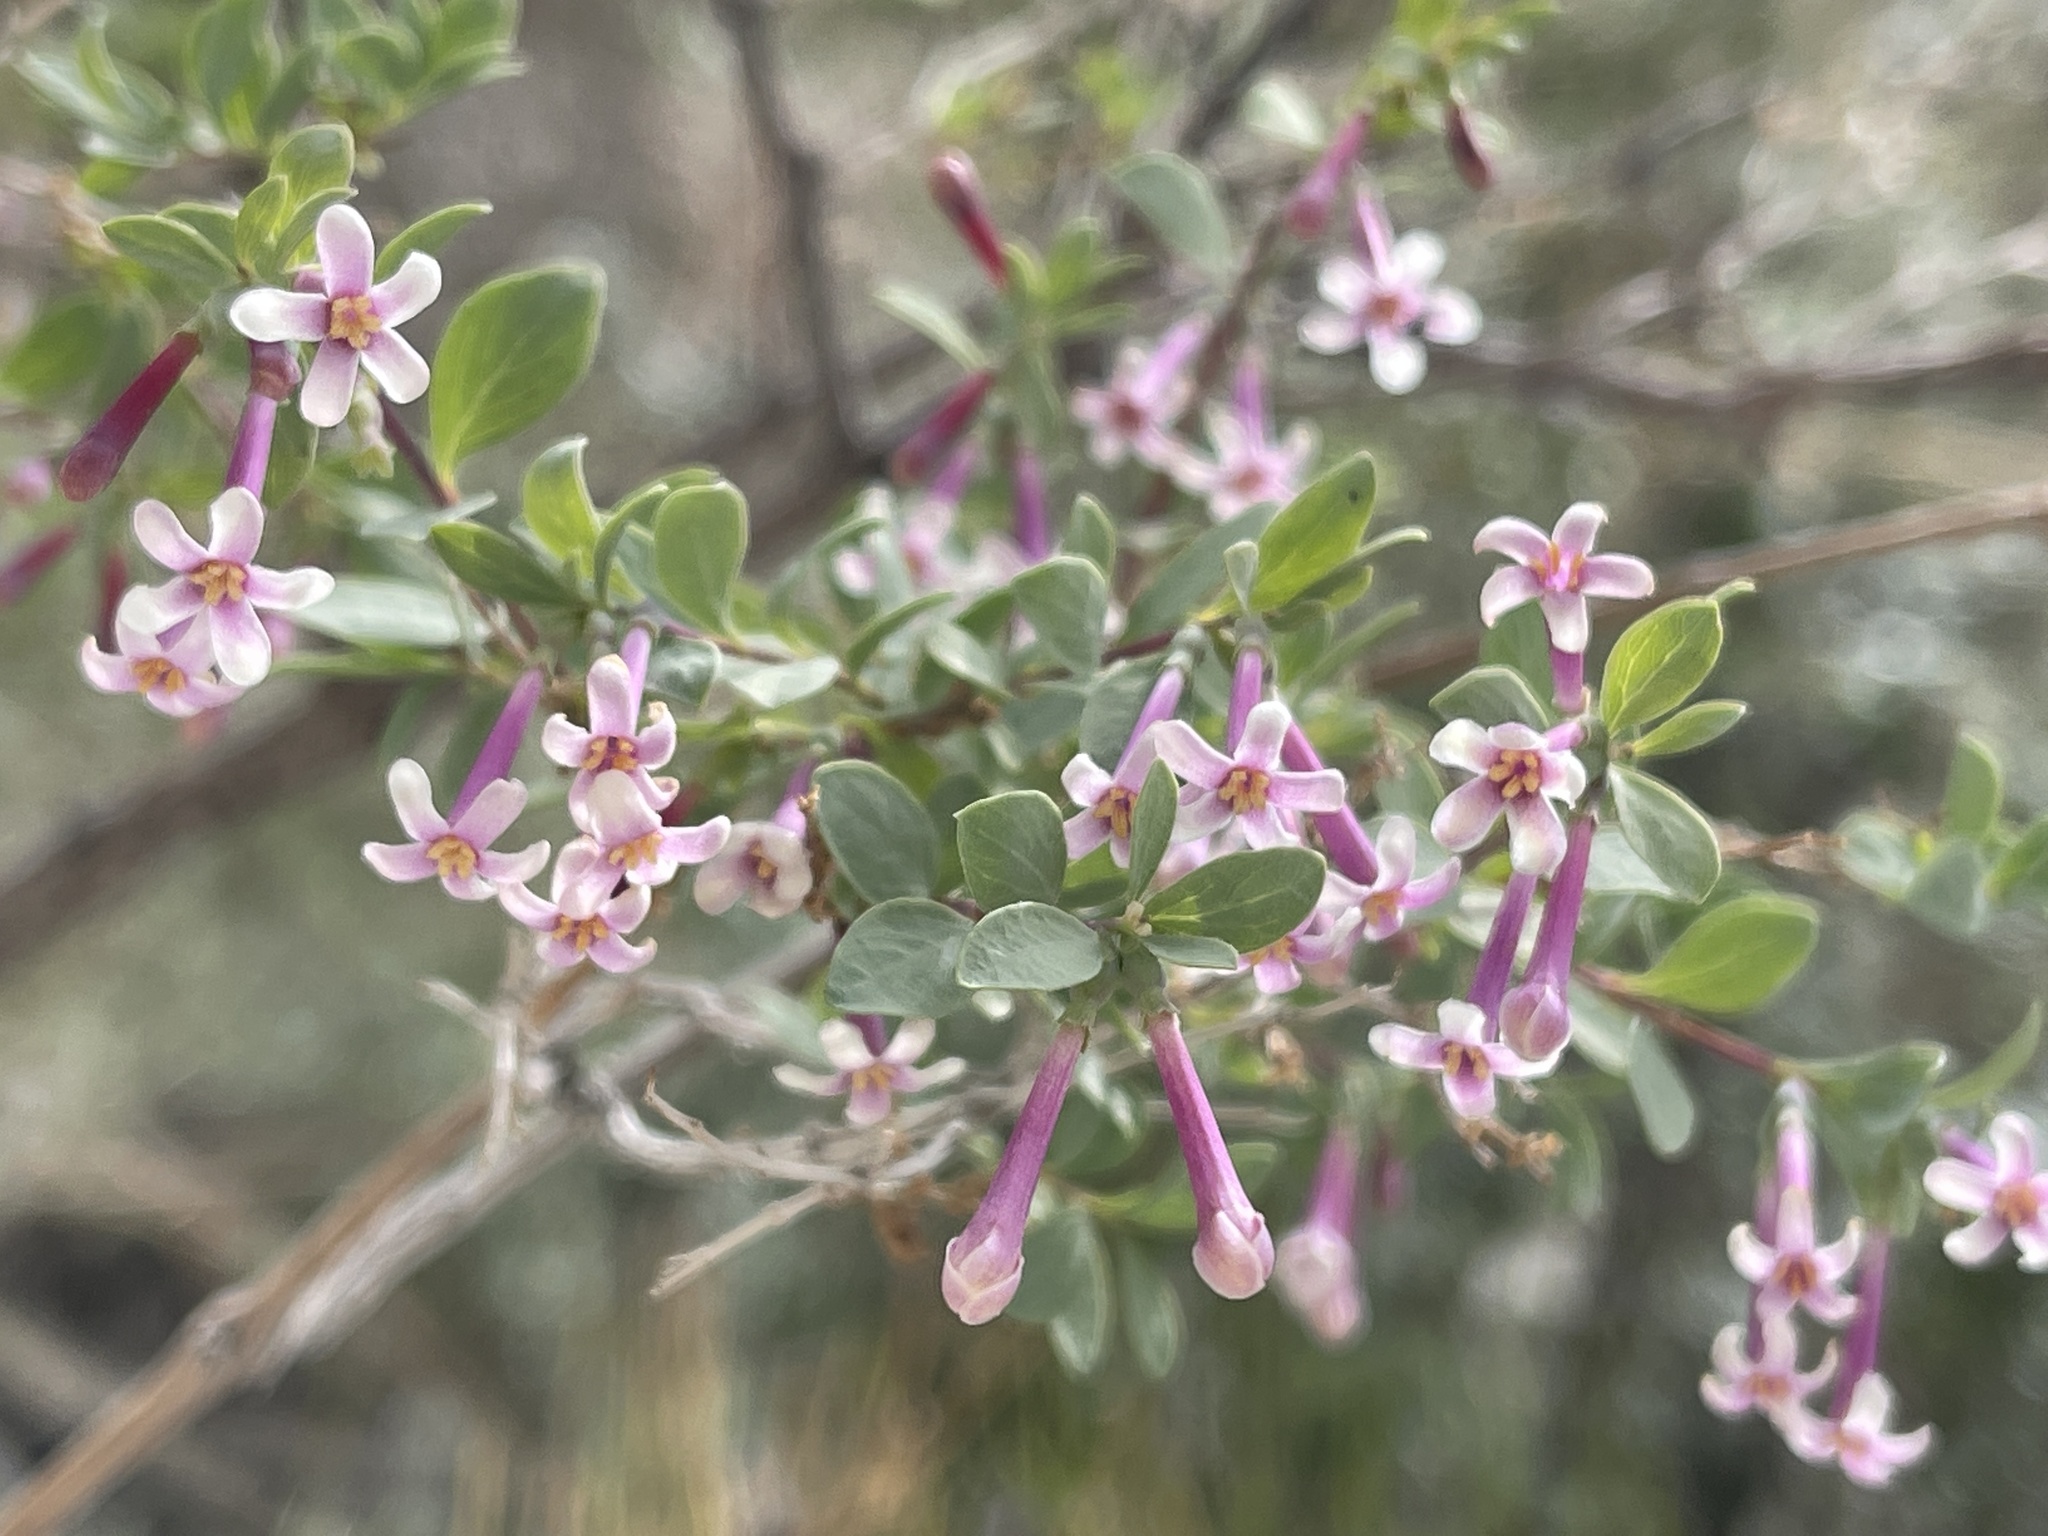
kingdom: Plantae
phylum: Tracheophyta
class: Magnoliopsida
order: Dipsacales
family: Caprifoliaceae
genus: Symphoricarpos
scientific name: Symphoricarpos longiflorus
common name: Fragrant snowberry
